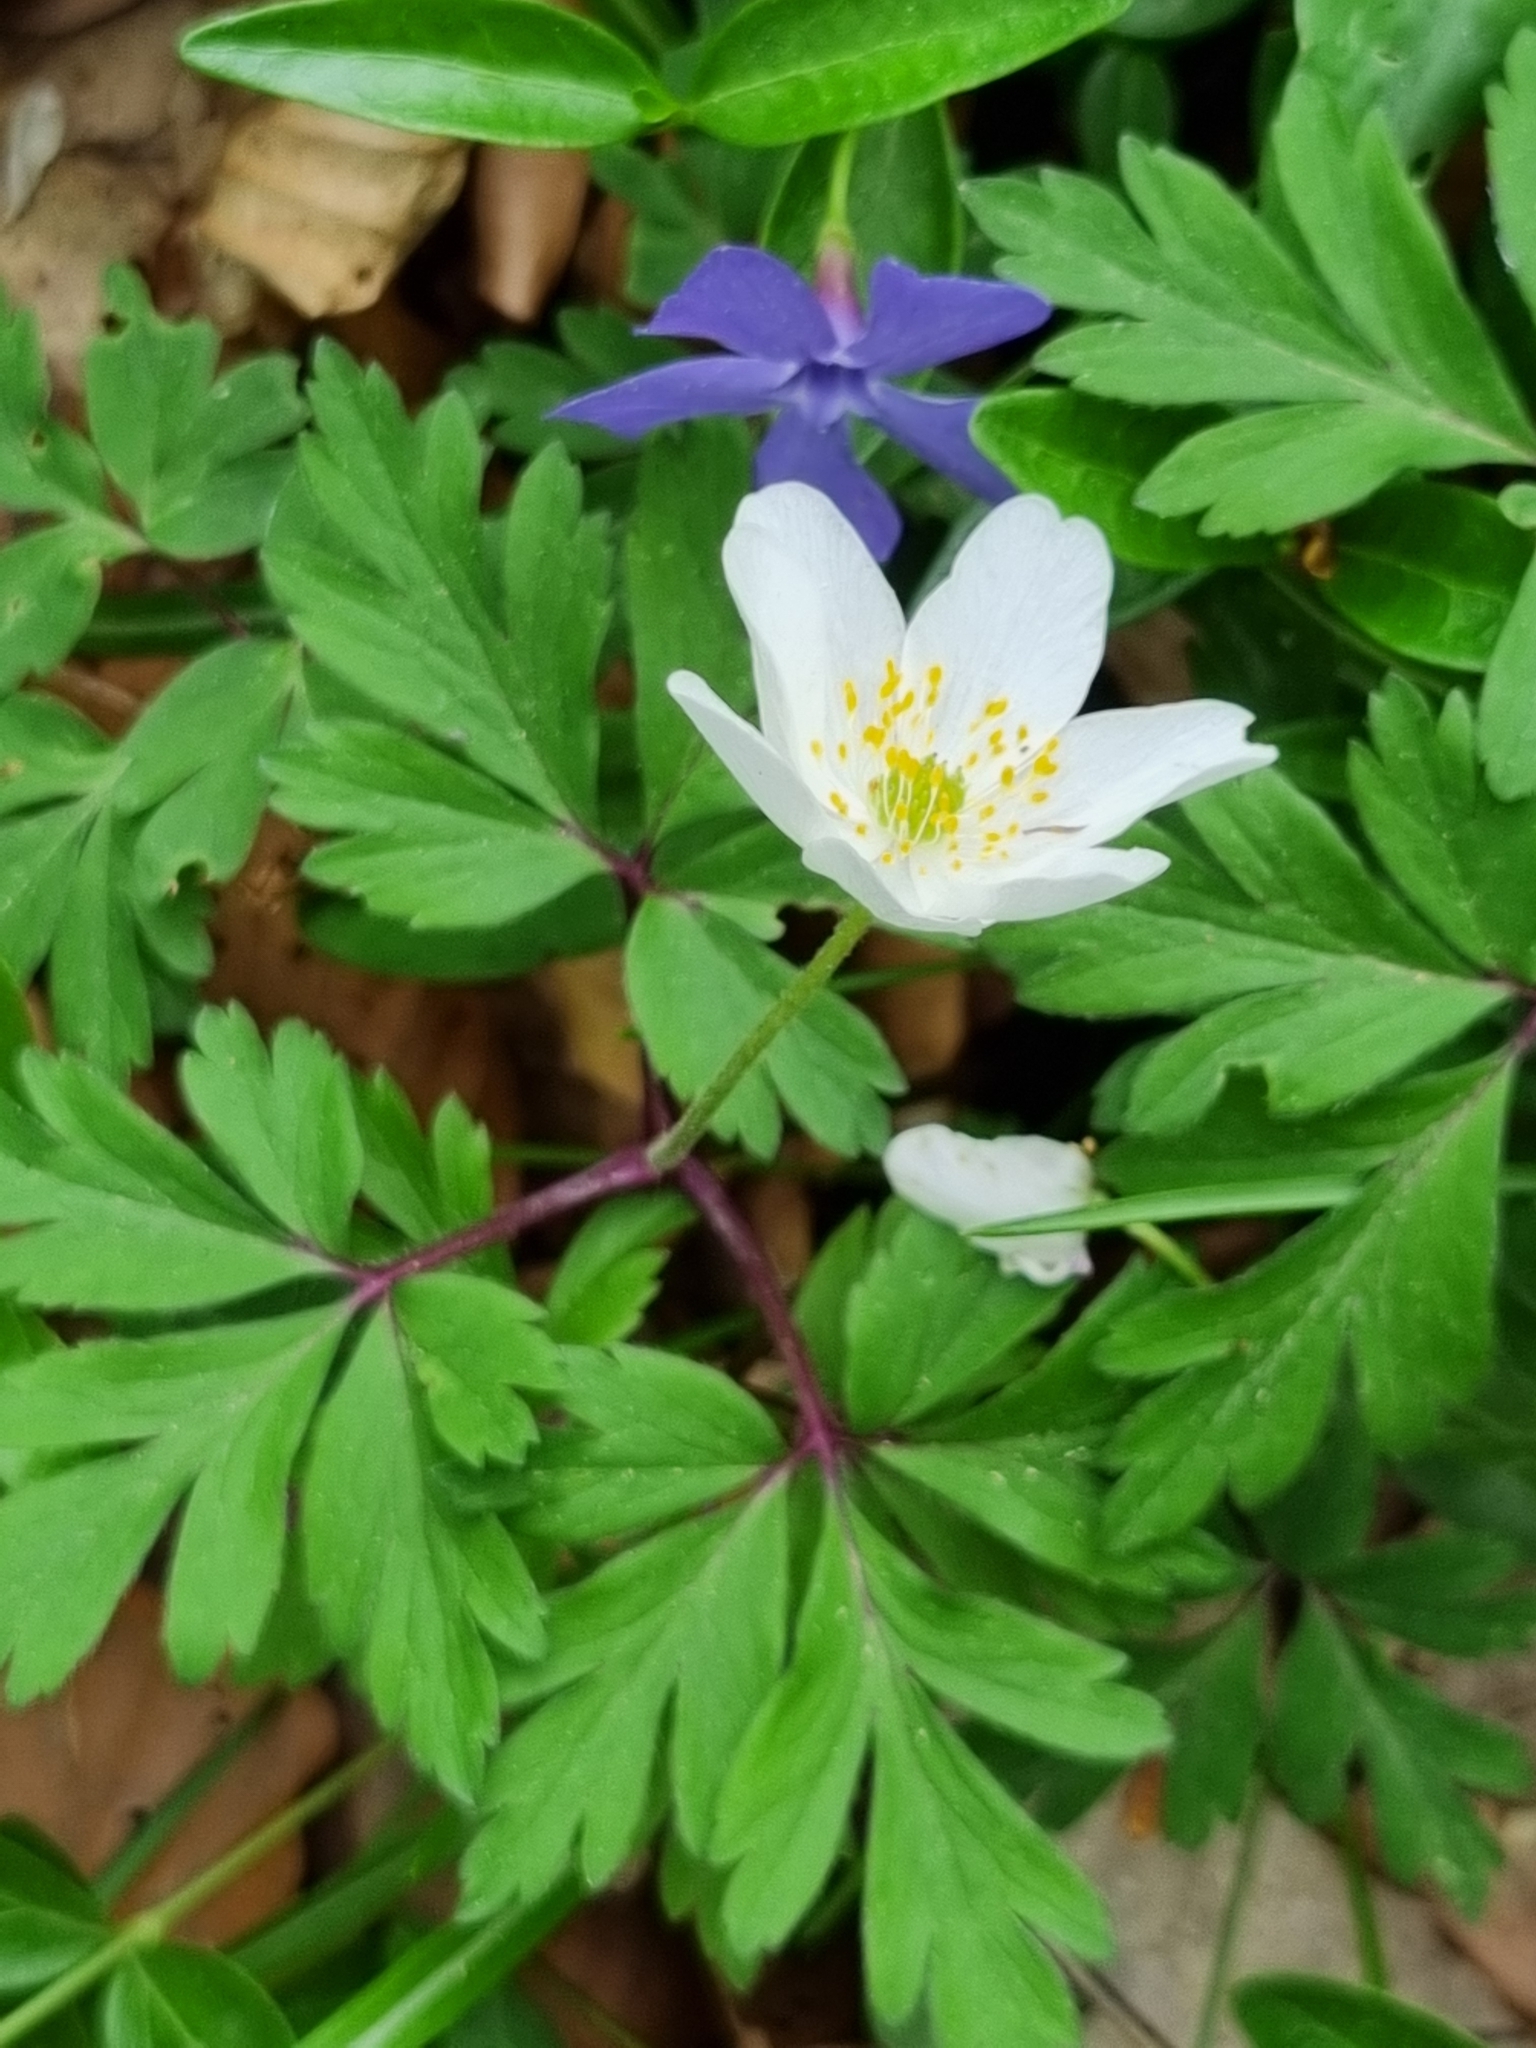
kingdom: Plantae
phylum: Tracheophyta
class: Magnoliopsida
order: Ranunculales
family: Ranunculaceae
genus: Anemone
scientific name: Anemone nemorosa
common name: Wood anemone
